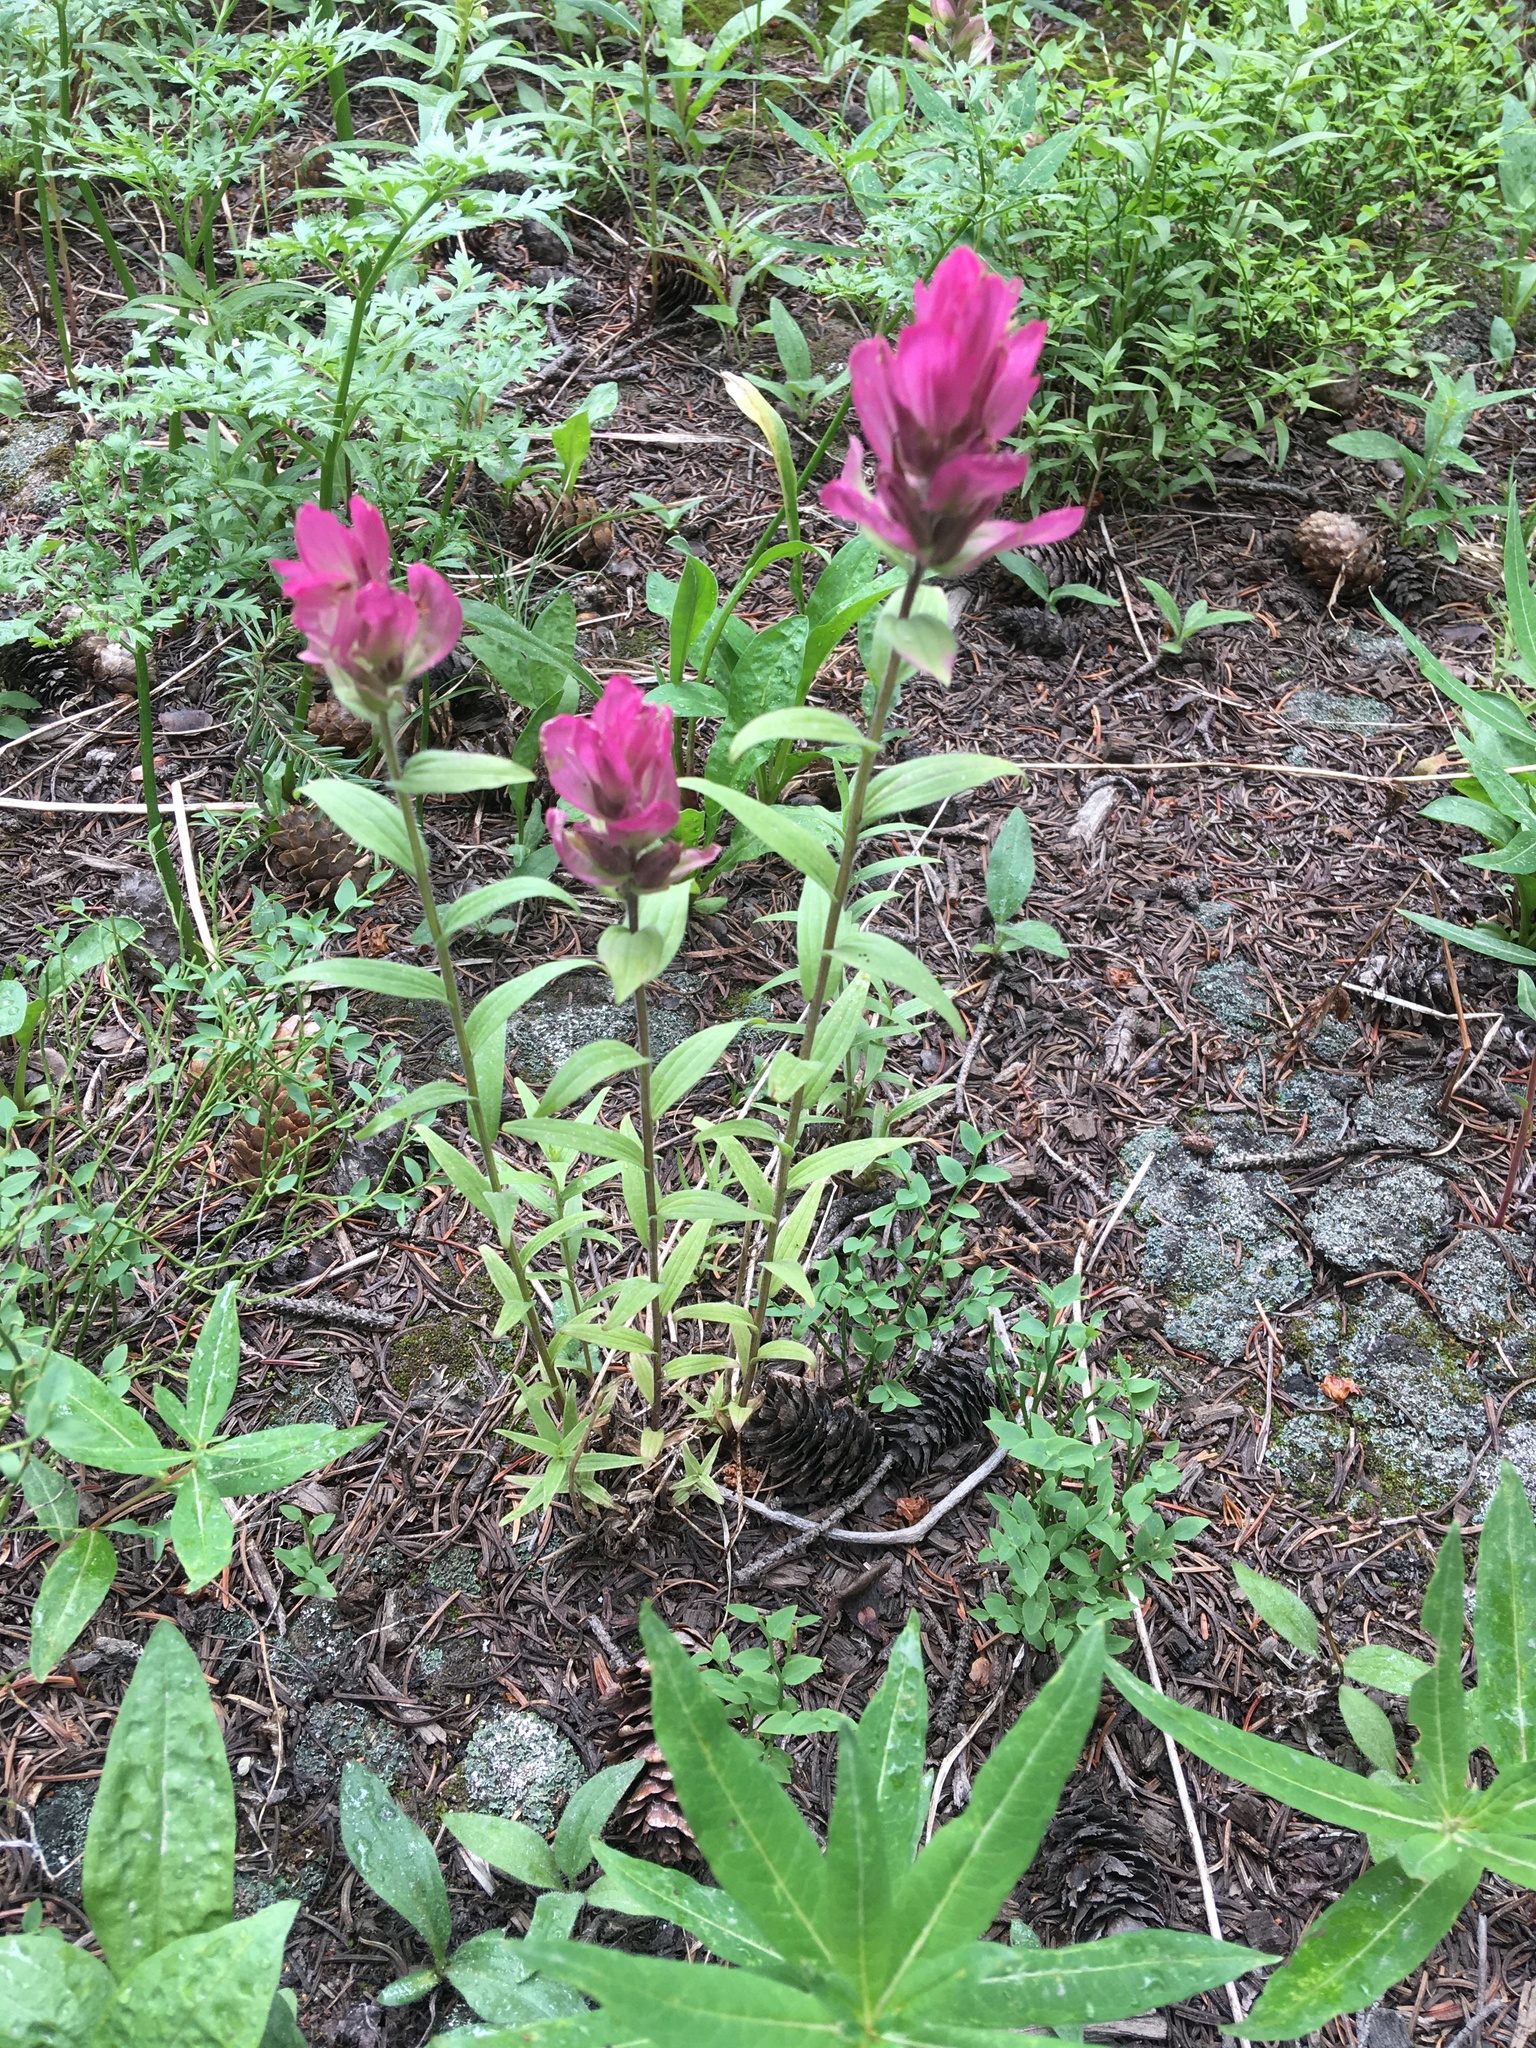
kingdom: Plantae
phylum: Tracheophyta
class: Magnoliopsida
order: Lamiales
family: Orobanchaceae
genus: Castilleja
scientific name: Castilleja rhexifolia
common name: Rocky mountain paintbrush
